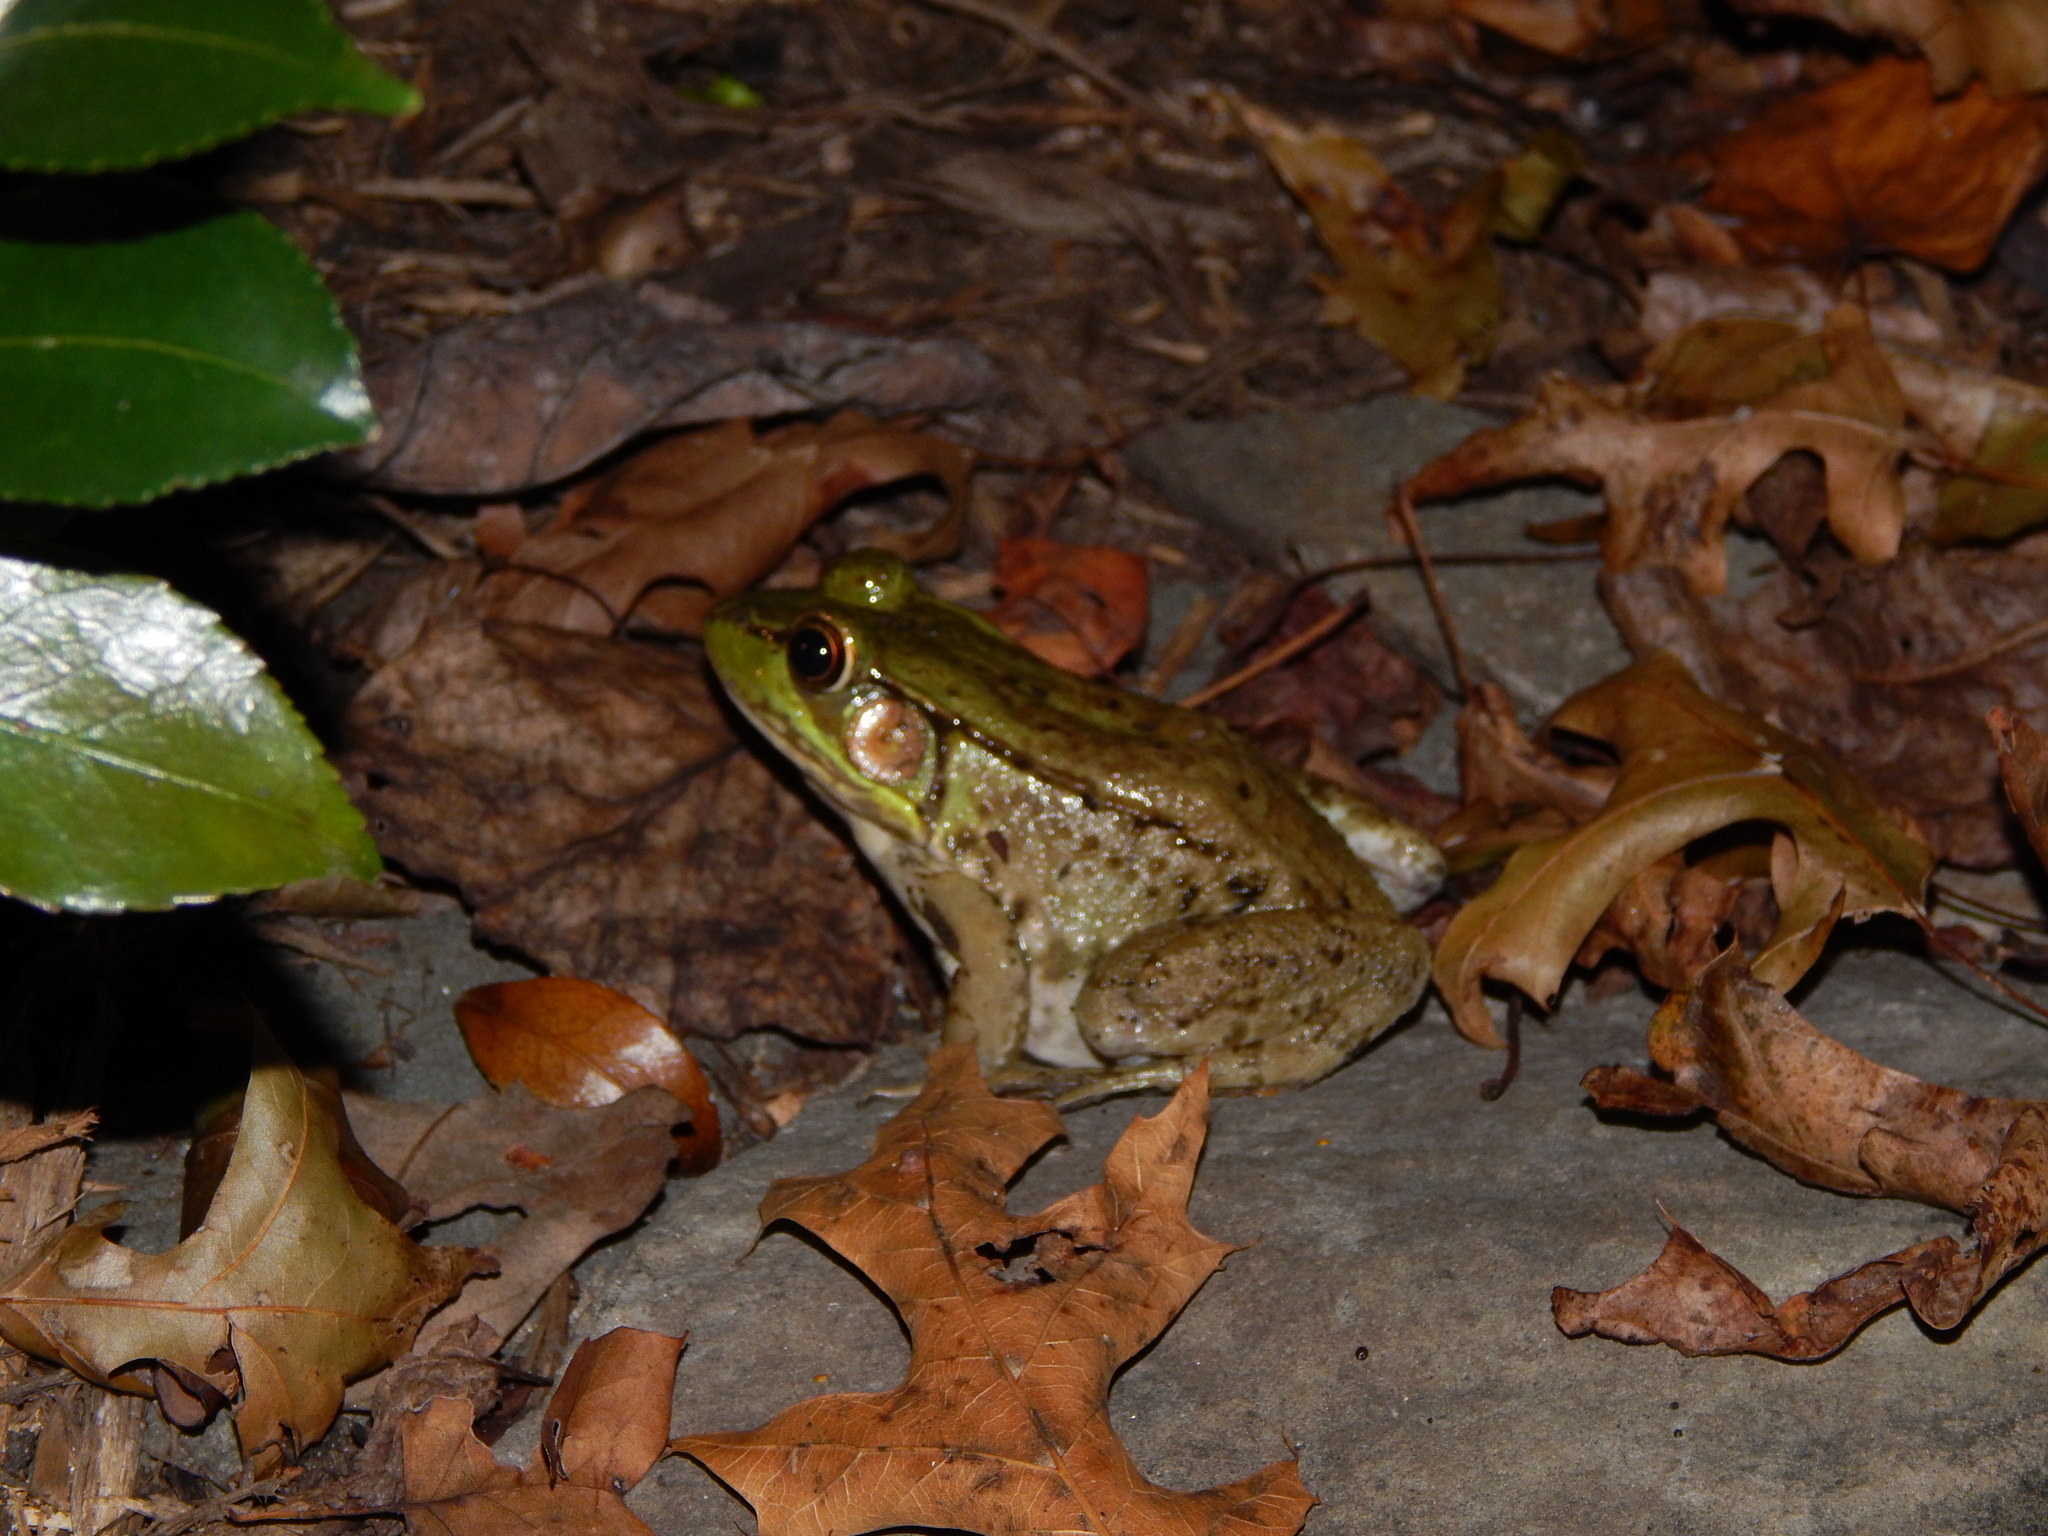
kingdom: Animalia
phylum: Chordata
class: Amphibia
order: Anura
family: Ranidae
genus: Lithobates
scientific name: Lithobates clamitans
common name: Green frog
